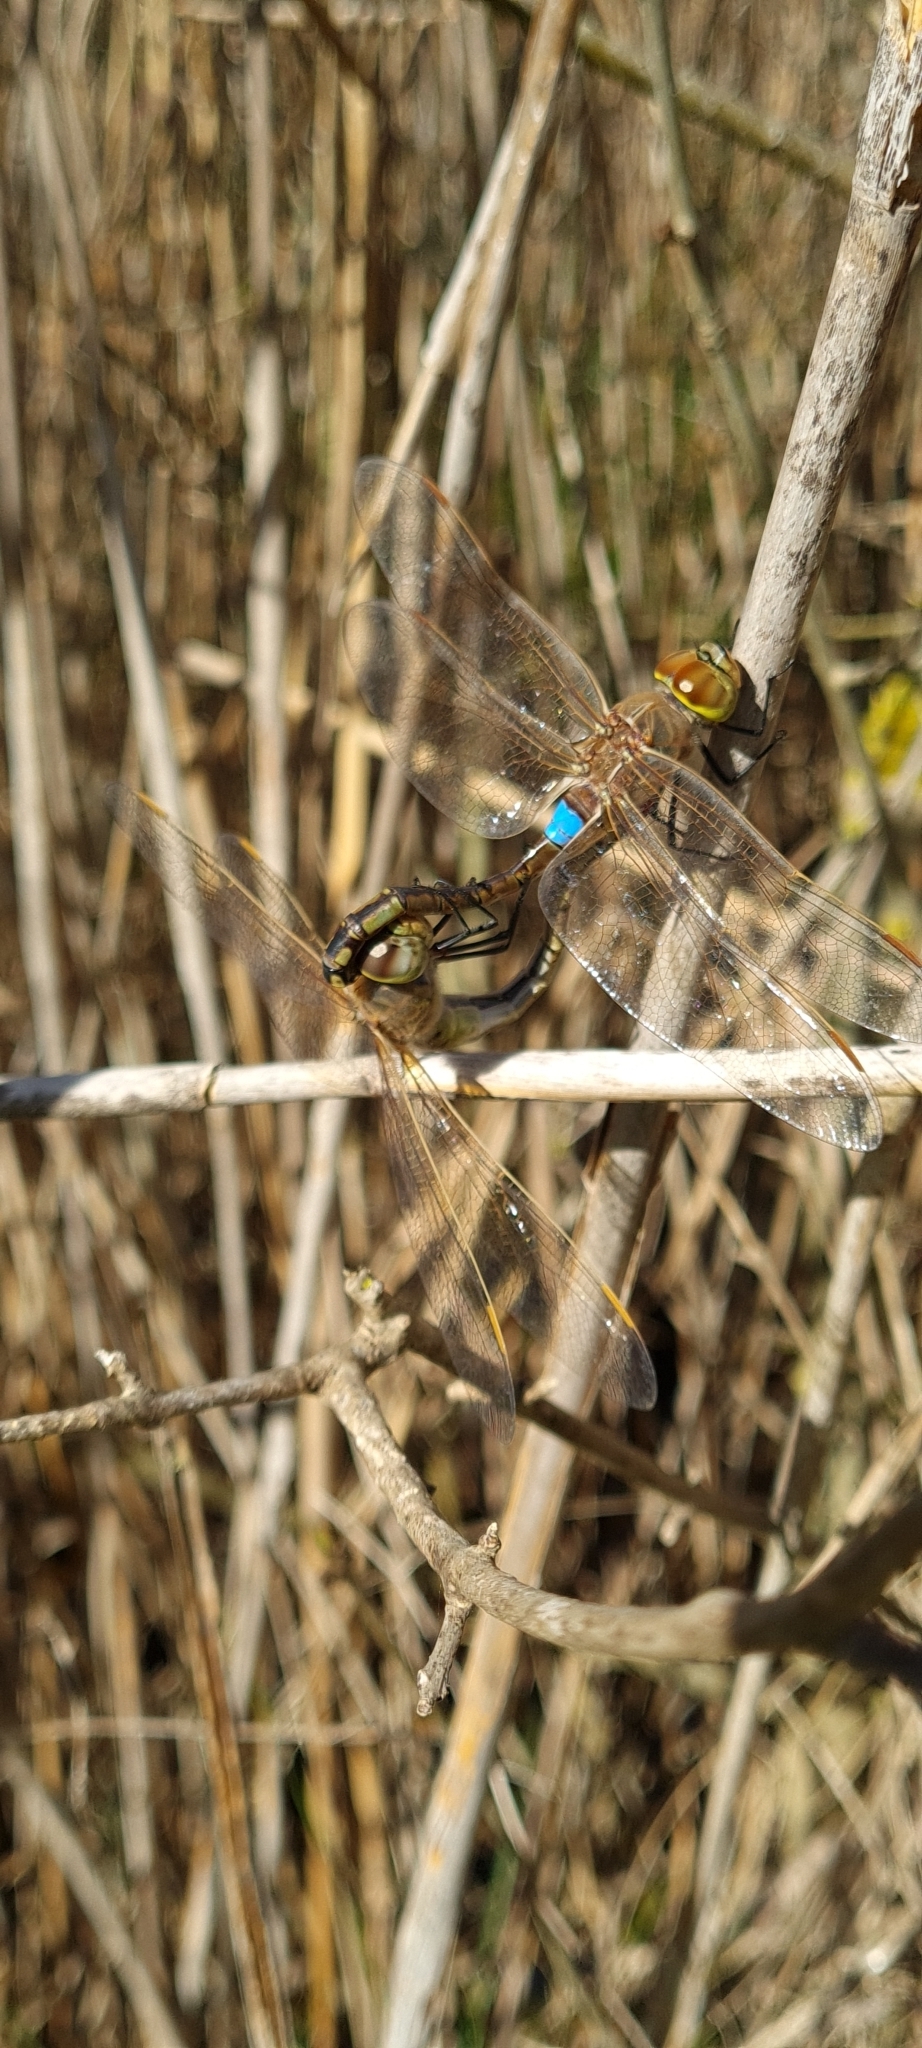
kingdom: Animalia
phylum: Arthropoda
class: Insecta
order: Odonata
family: Aeshnidae
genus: Anax
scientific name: Anax ephippiger
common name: Vagrant emperor
